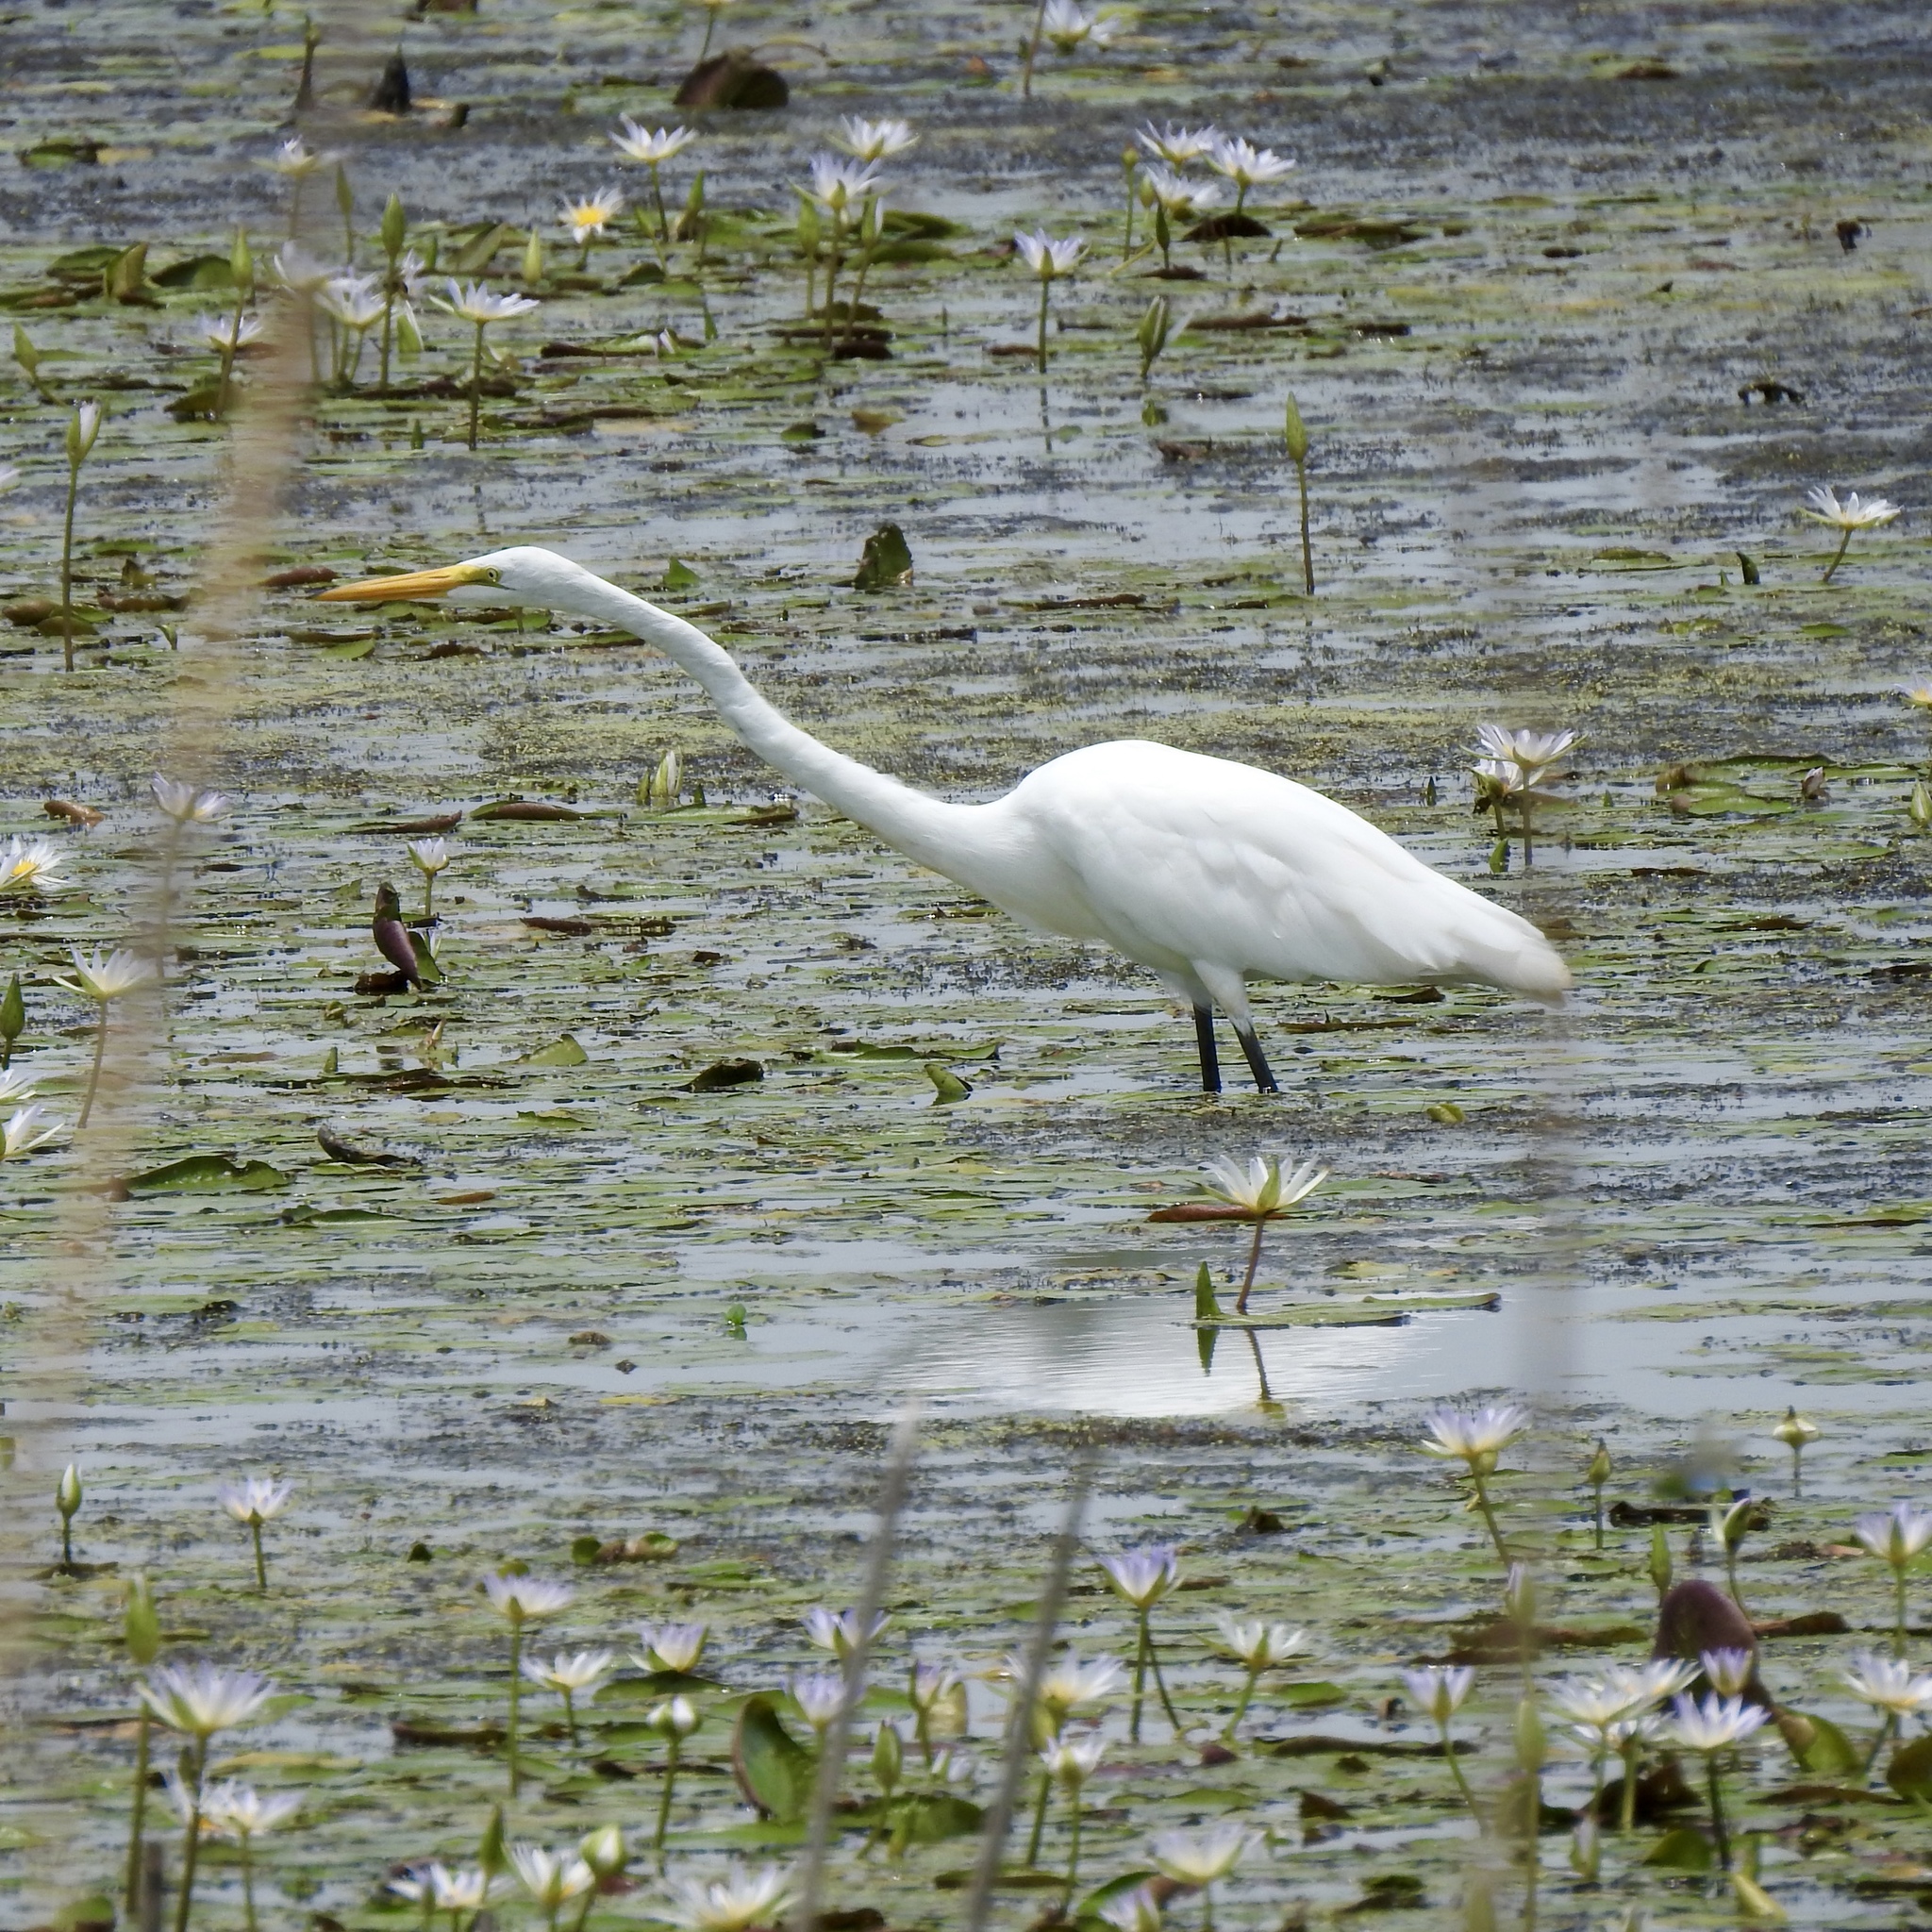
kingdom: Animalia
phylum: Chordata
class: Aves
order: Pelecaniformes
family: Ardeidae
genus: Ardea
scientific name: Ardea alba
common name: Great egret
